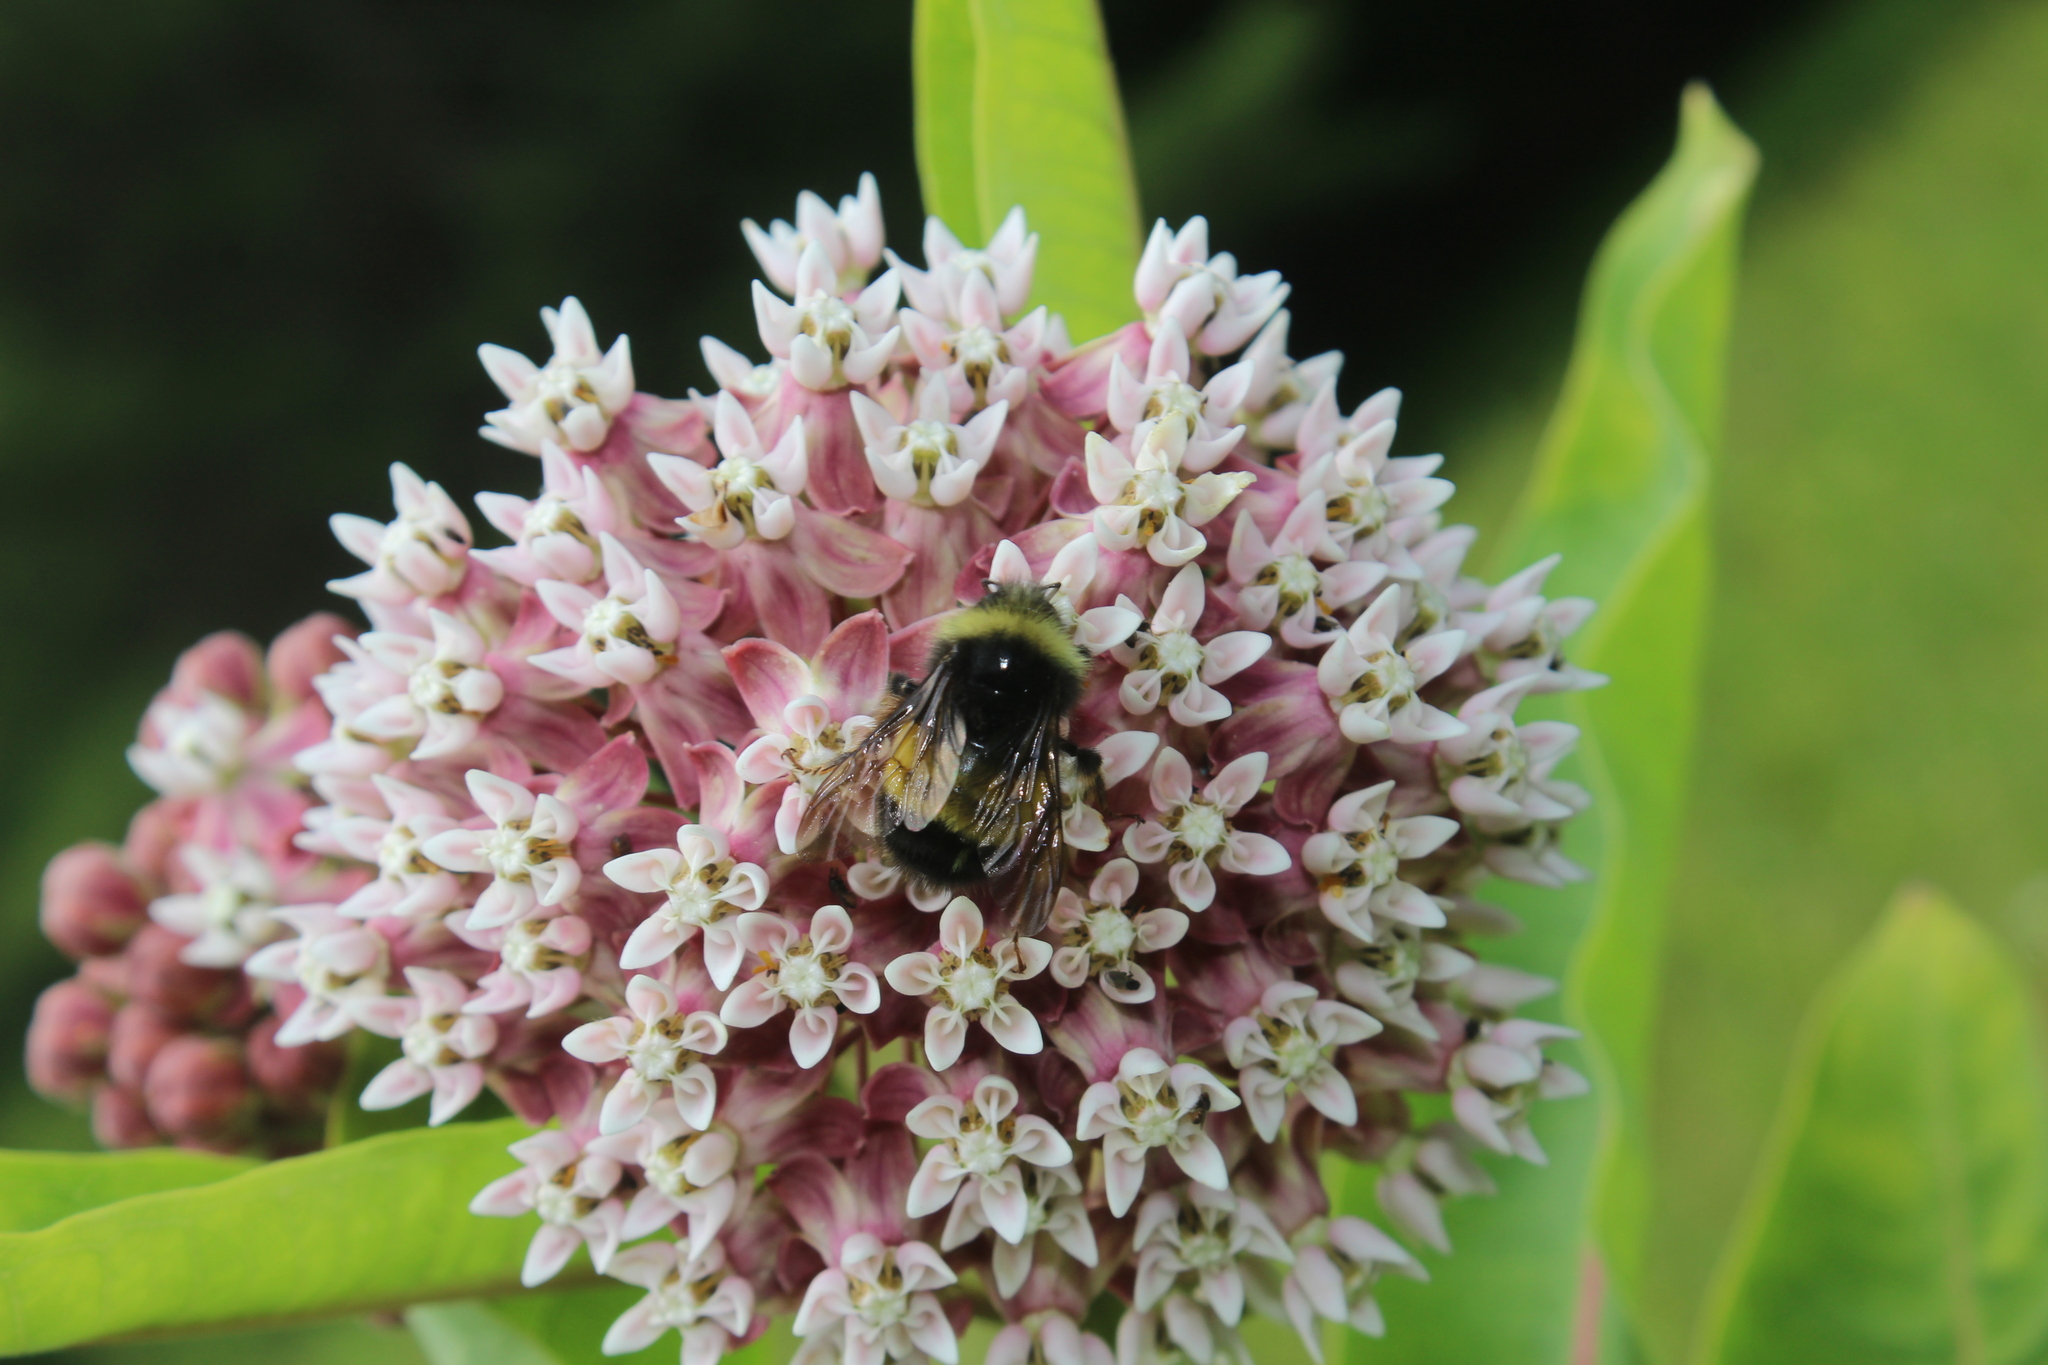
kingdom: Animalia
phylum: Arthropoda
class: Insecta
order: Hymenoptera
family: Apidae
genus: Bombus
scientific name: Bombus terricola
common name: Yellow-banded bumble bee
